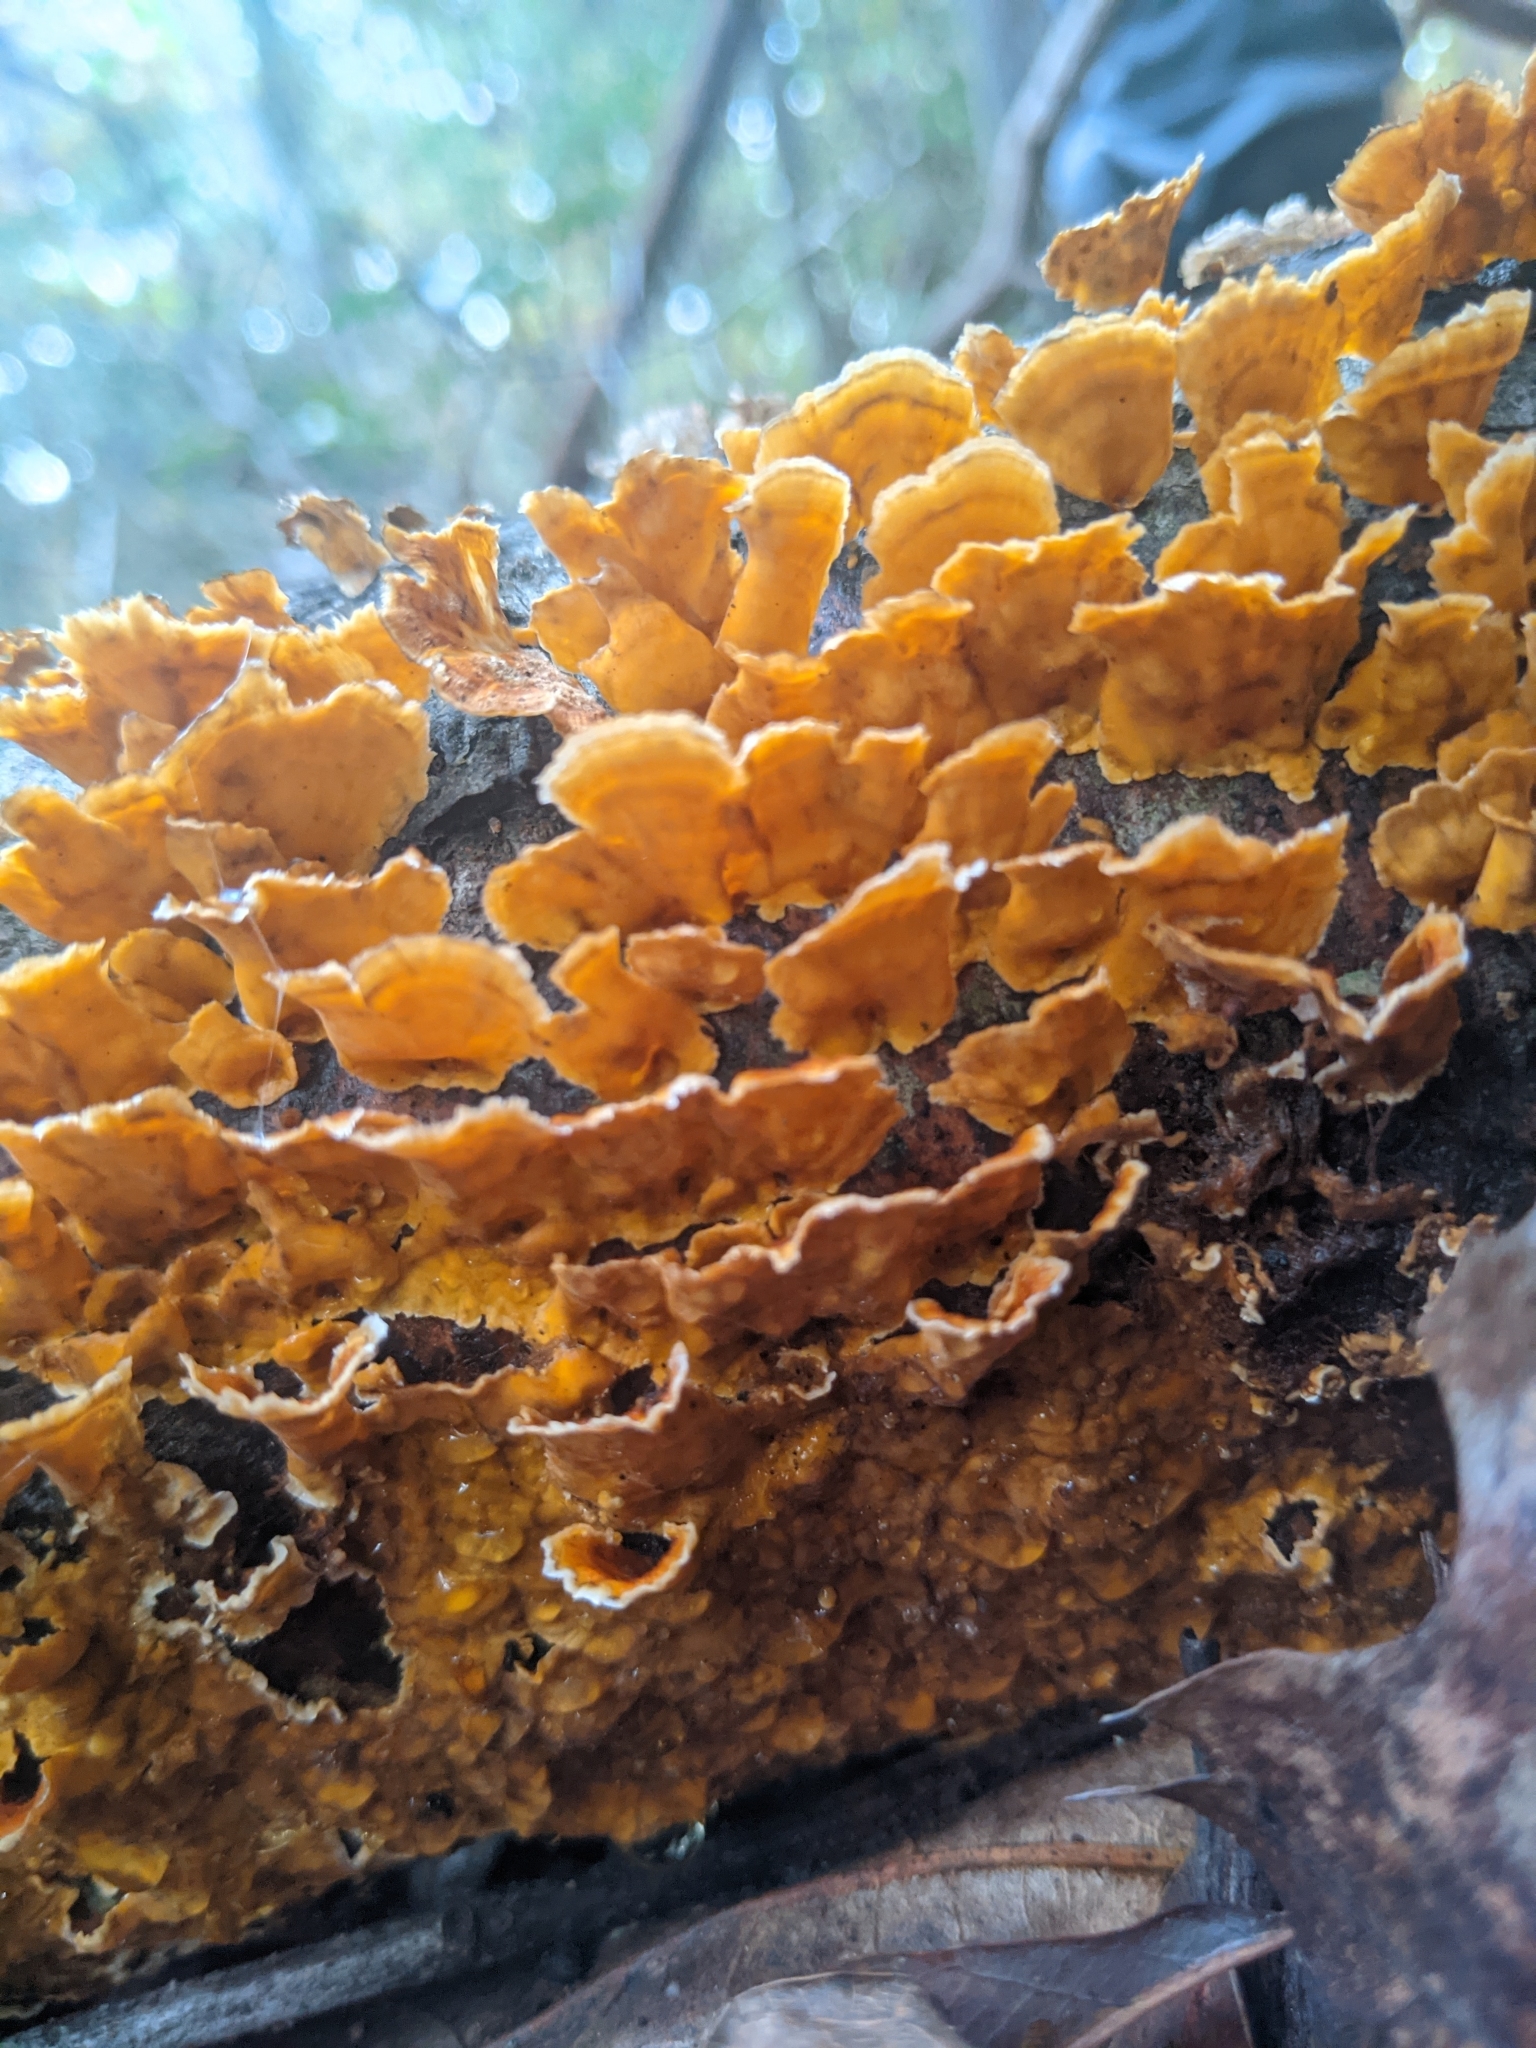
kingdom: Fungi
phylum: Basidiomycota
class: Agaricomycetes
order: Russulales
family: Stereaceae
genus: Stereum
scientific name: Stereum complicatum
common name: Crowded parchment
